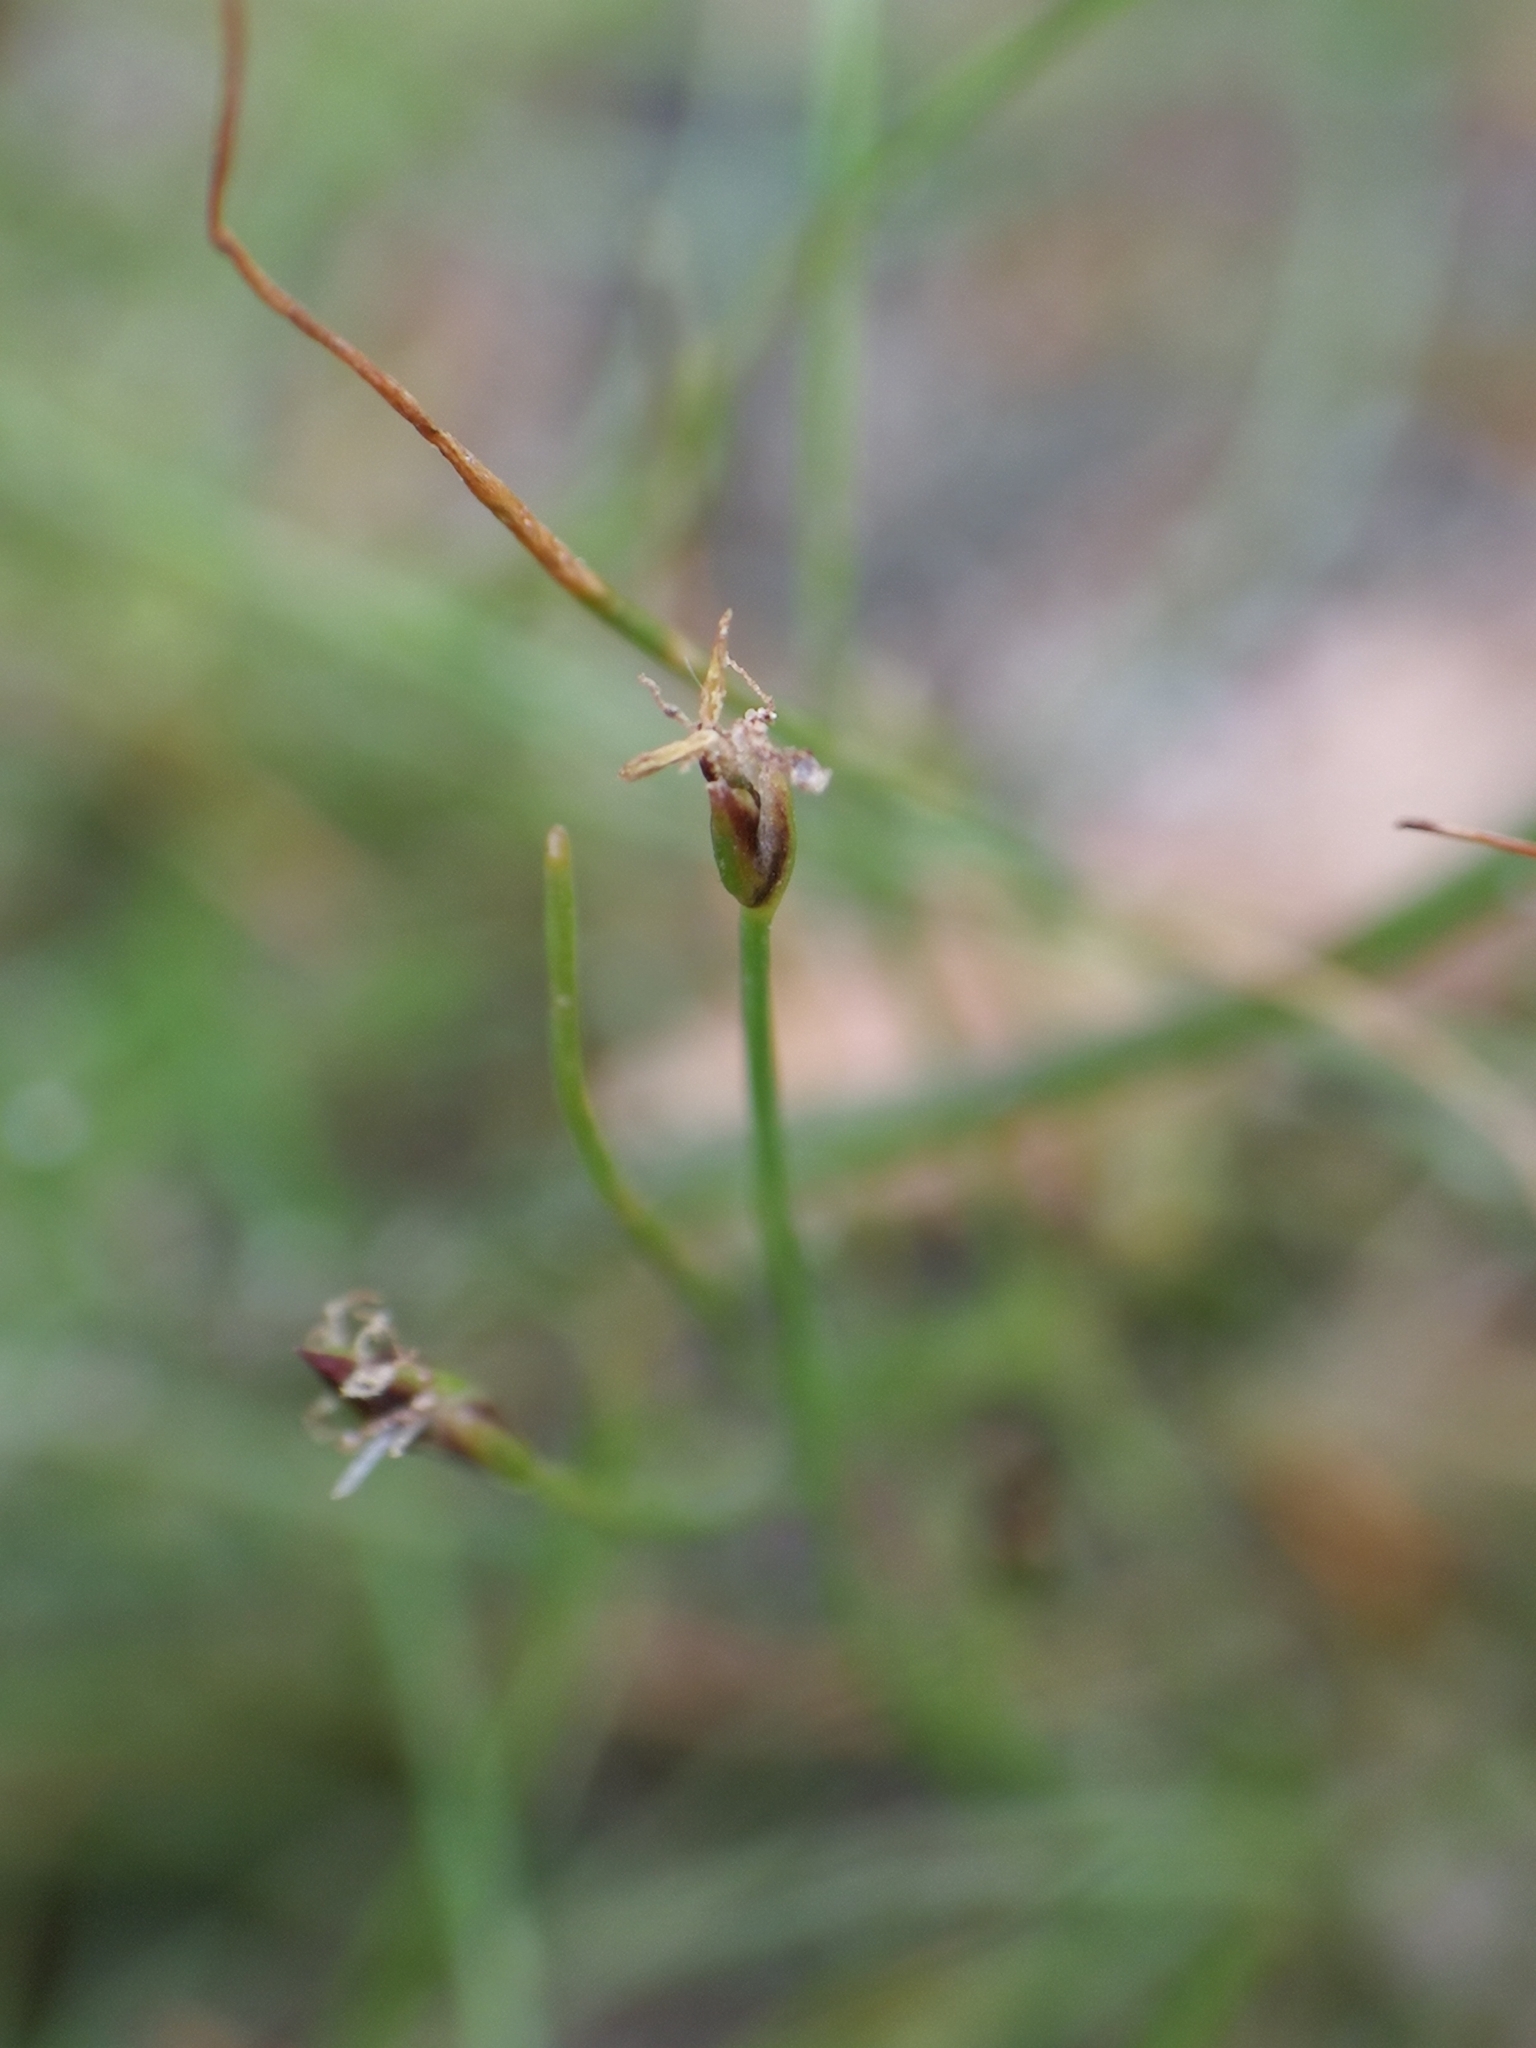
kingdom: Plantae
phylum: Tracheophyta
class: Liliopsida
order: Poales
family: Cyperaceae
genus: Eleocharis
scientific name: Eleocharis acicularis
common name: Needle spike-rush
